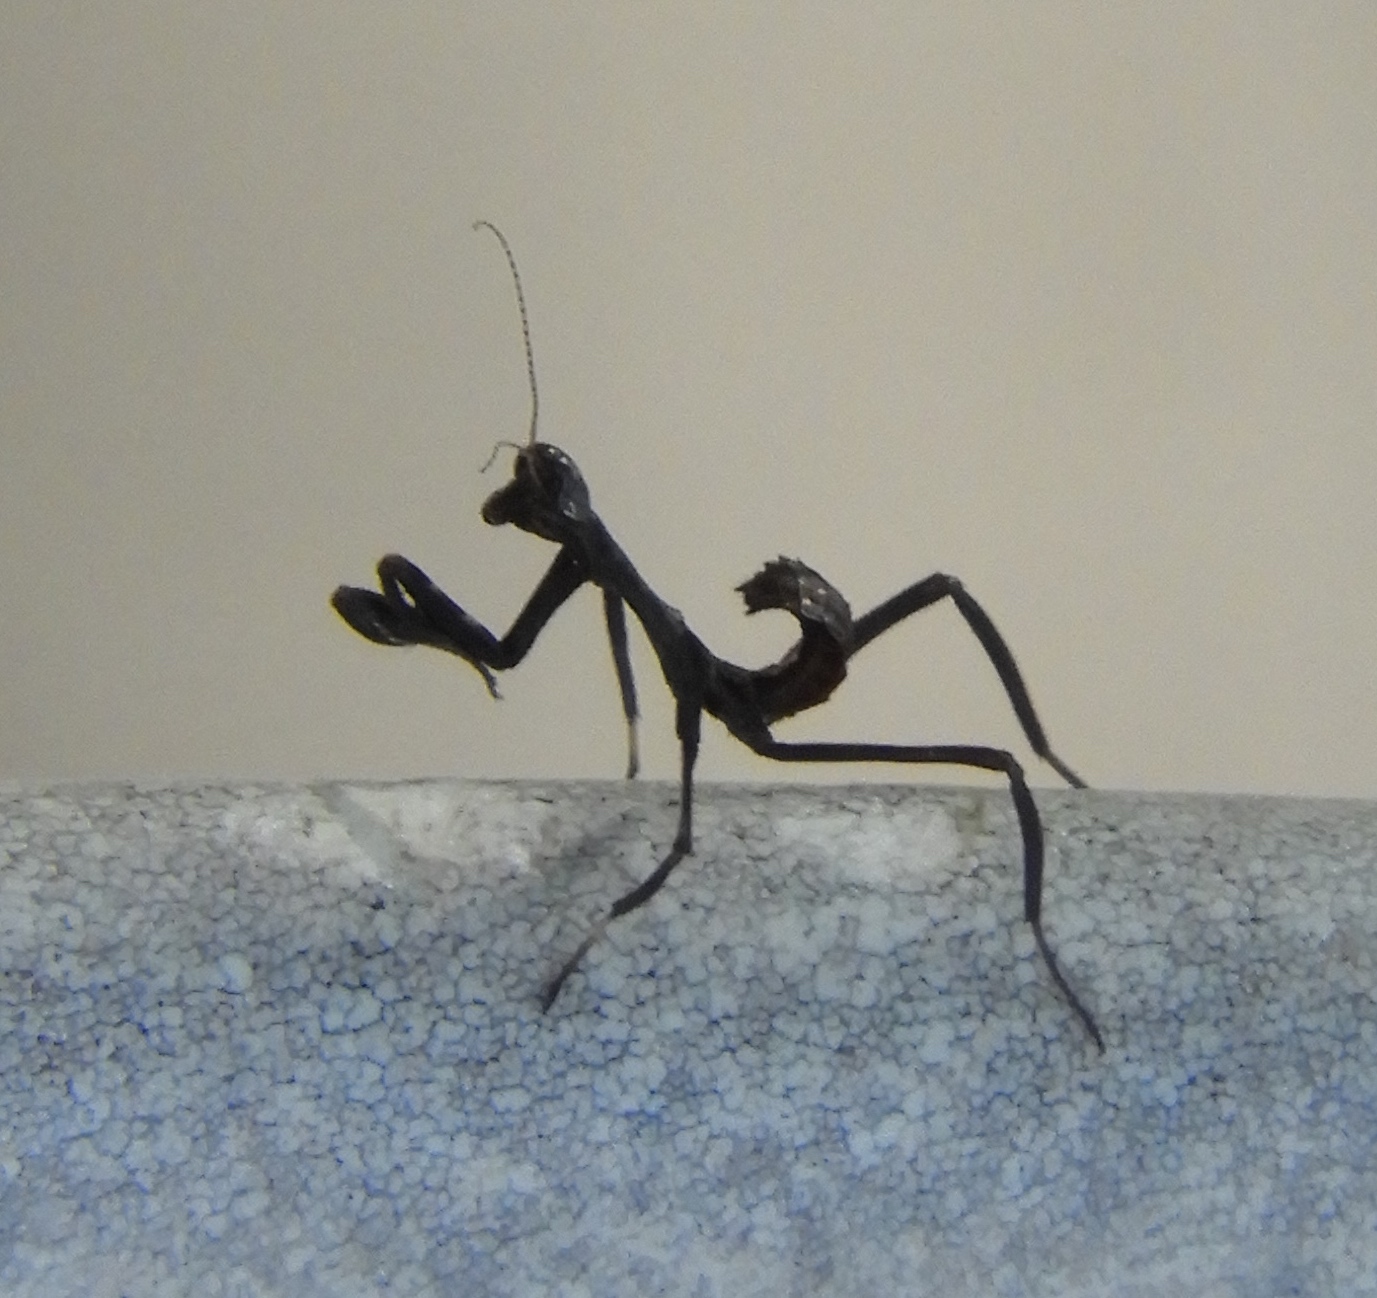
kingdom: Animalia
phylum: Arthropoda
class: Insecta
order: Mantodea
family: Mantidae
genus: Pseudovates
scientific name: Pseudovates chlorophaea
